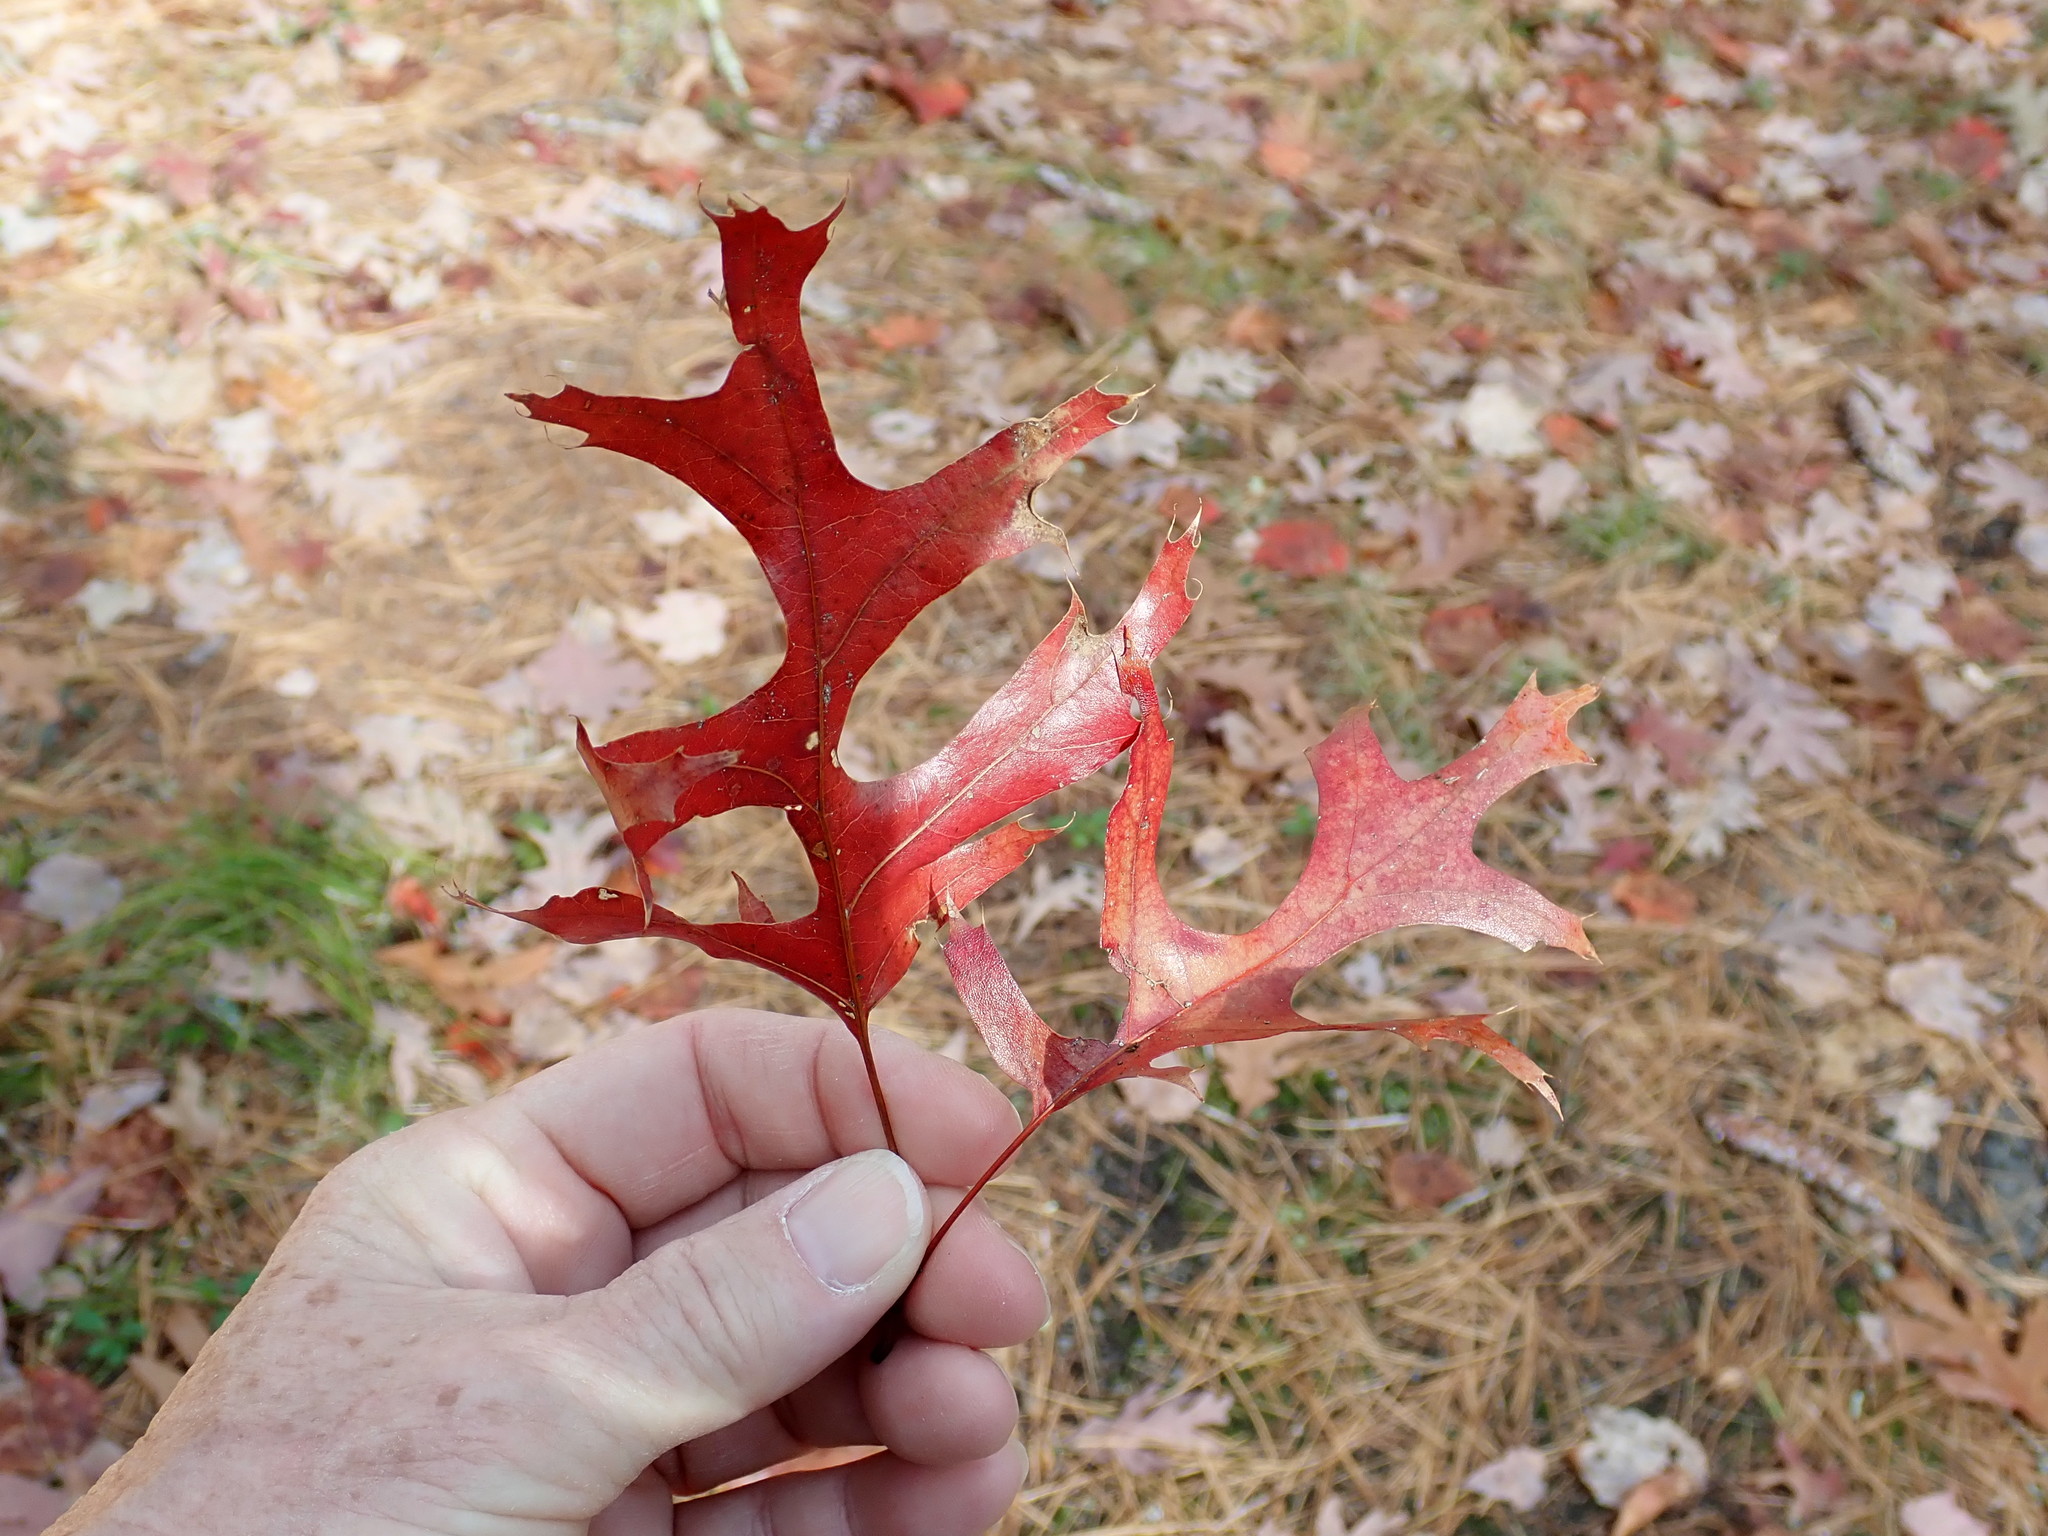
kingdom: Plantae
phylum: Tracheophyta
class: Magnoliopsida
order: Fagales
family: Fagaceae
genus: Quercus
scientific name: Quercus coccinea
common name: Scarlet oak
